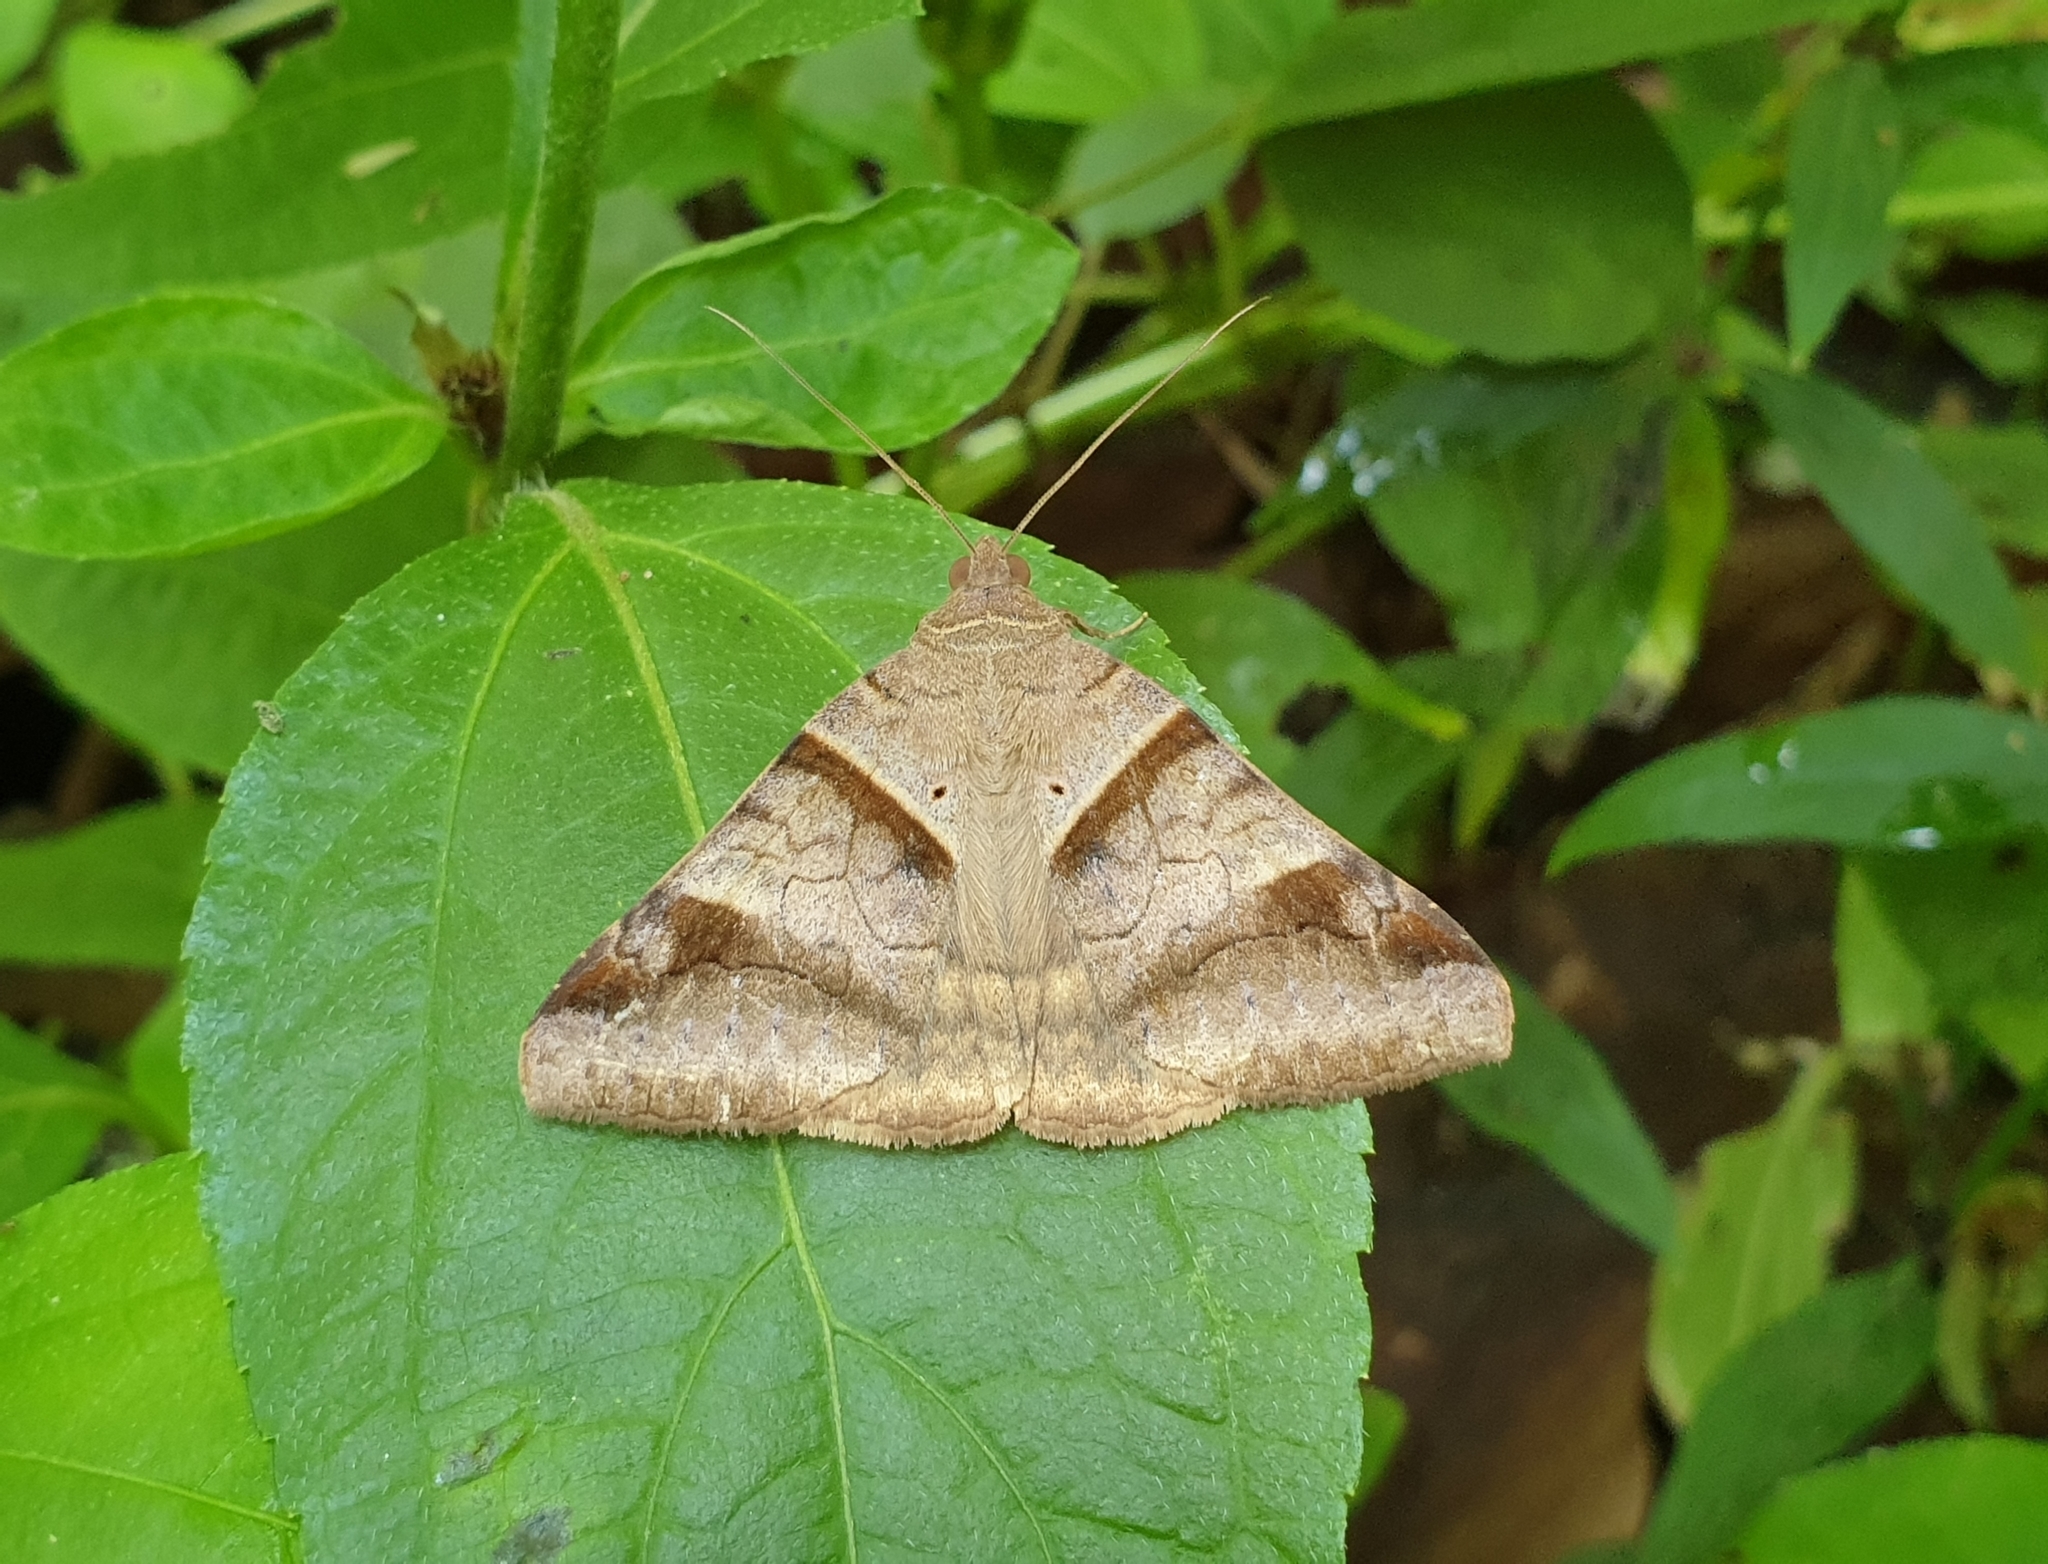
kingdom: Animalia
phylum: Arthropoda
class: Insecta
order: Lepidoptera
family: Erebidae
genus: Mocis
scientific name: Mocis undata
